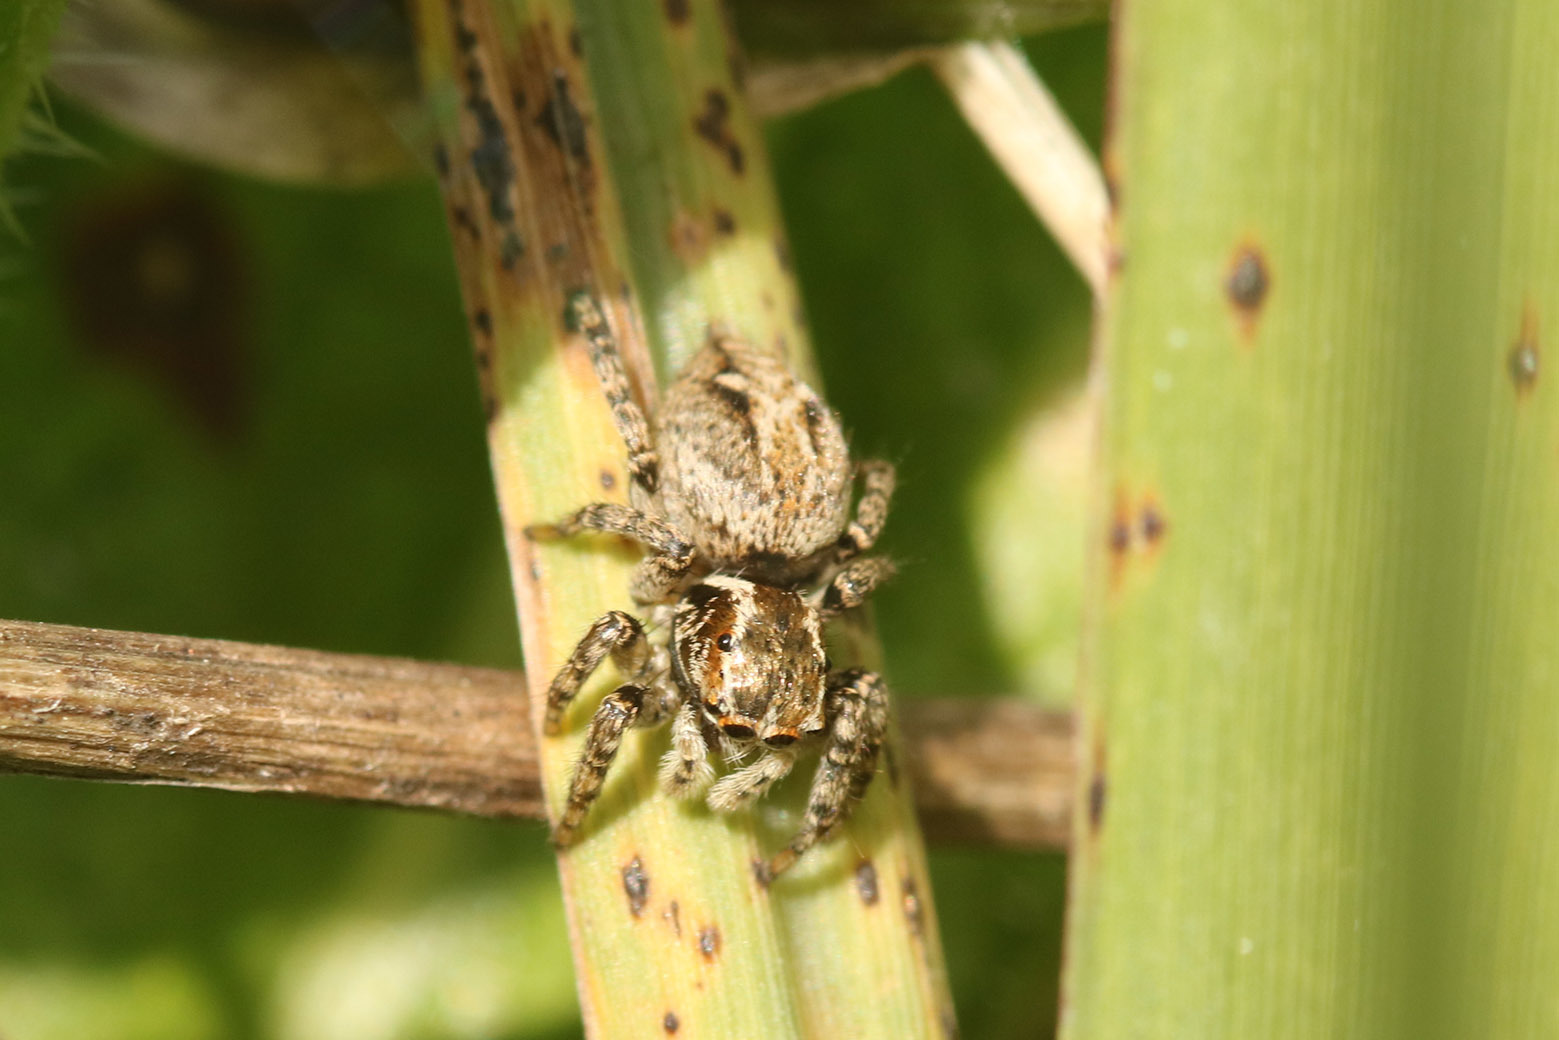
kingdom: Animalia
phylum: Arthropoda
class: Arachnida
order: Araneae
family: Salticidae
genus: Aphirape
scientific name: Aphirape
